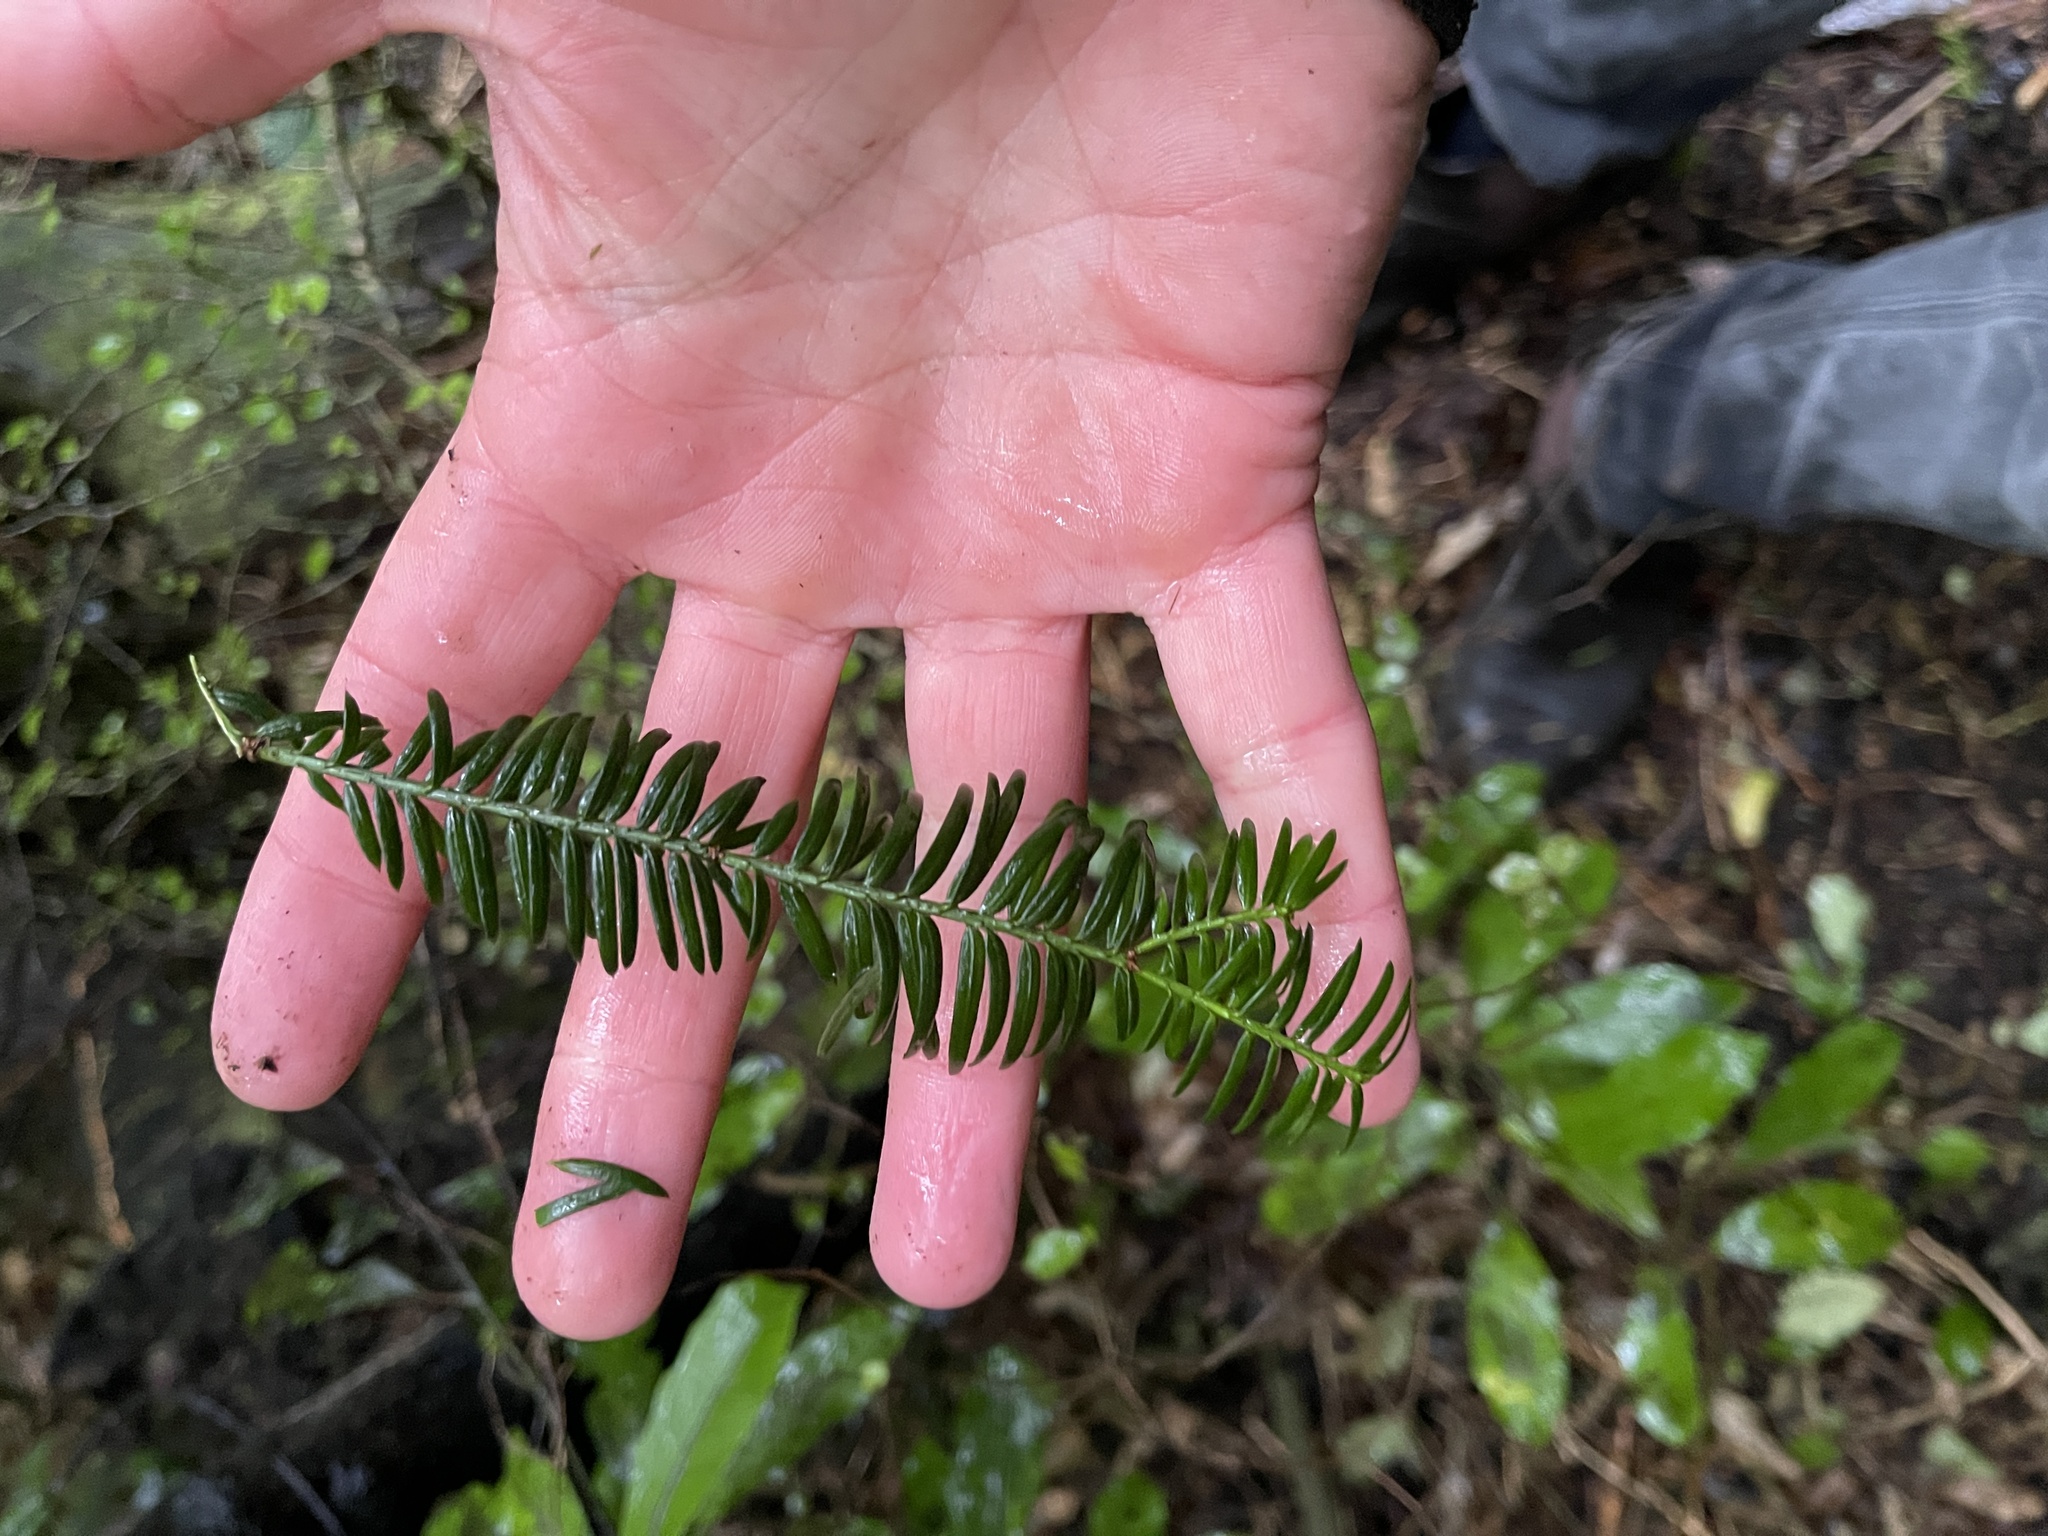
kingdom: Plantae
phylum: Tracheophyta
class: Pinopsida
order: Pinales
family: Taxaceae
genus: Taxus
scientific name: Taxus baccata
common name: Yew
